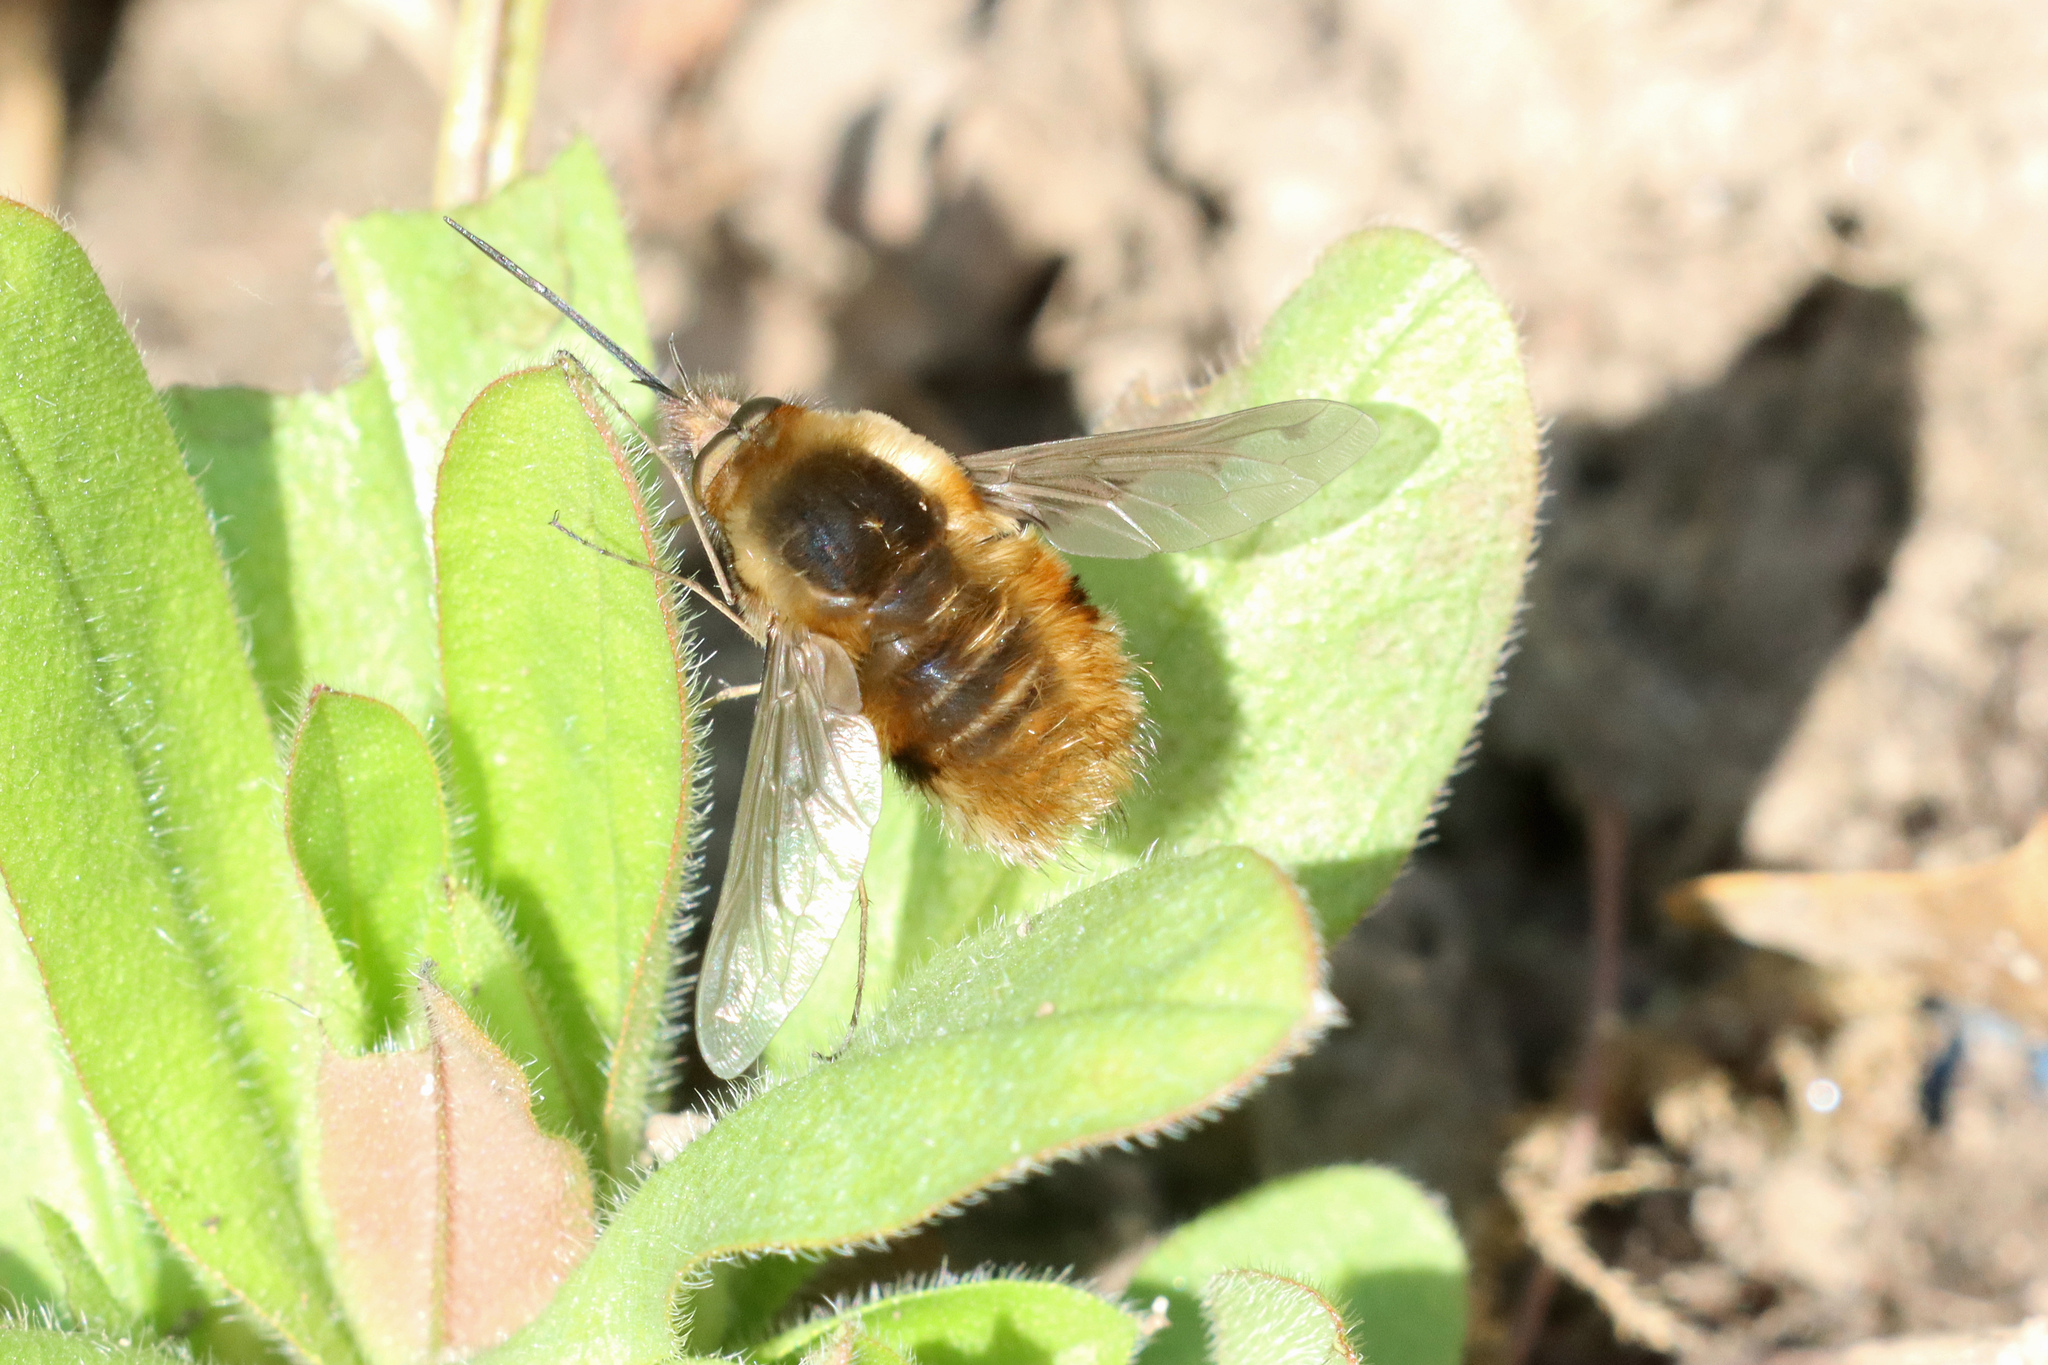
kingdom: Animalia
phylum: Arthropoda
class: Insecta
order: Diptera
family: Bombyliidae
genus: Bombylius
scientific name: Bombylius major
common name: Bee fly
